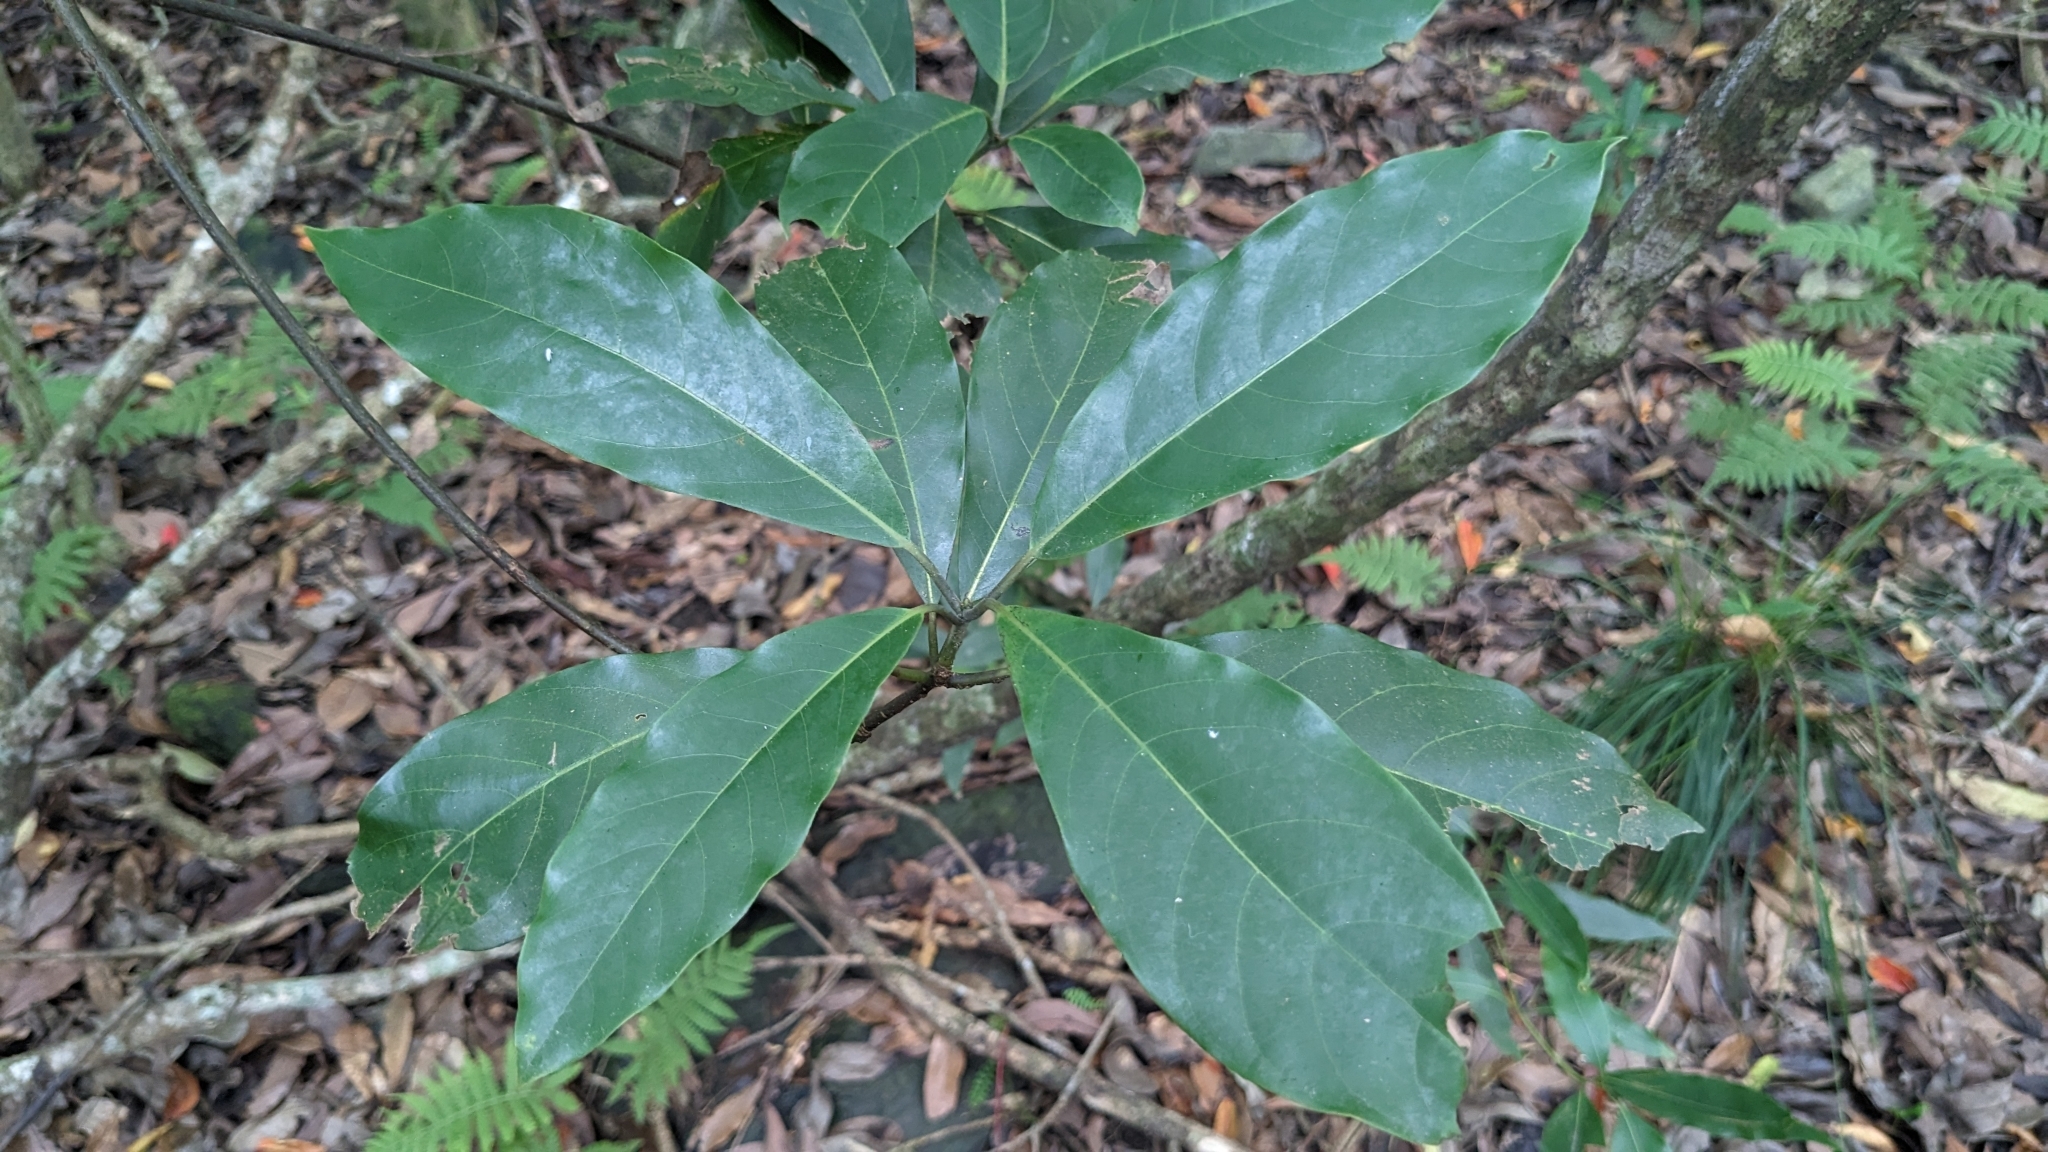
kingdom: Plantae
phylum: Tracheophyta
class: Magnoliopsida
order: Laurales
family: Lauraceae
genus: Lindera
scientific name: Lindera megaphylla
